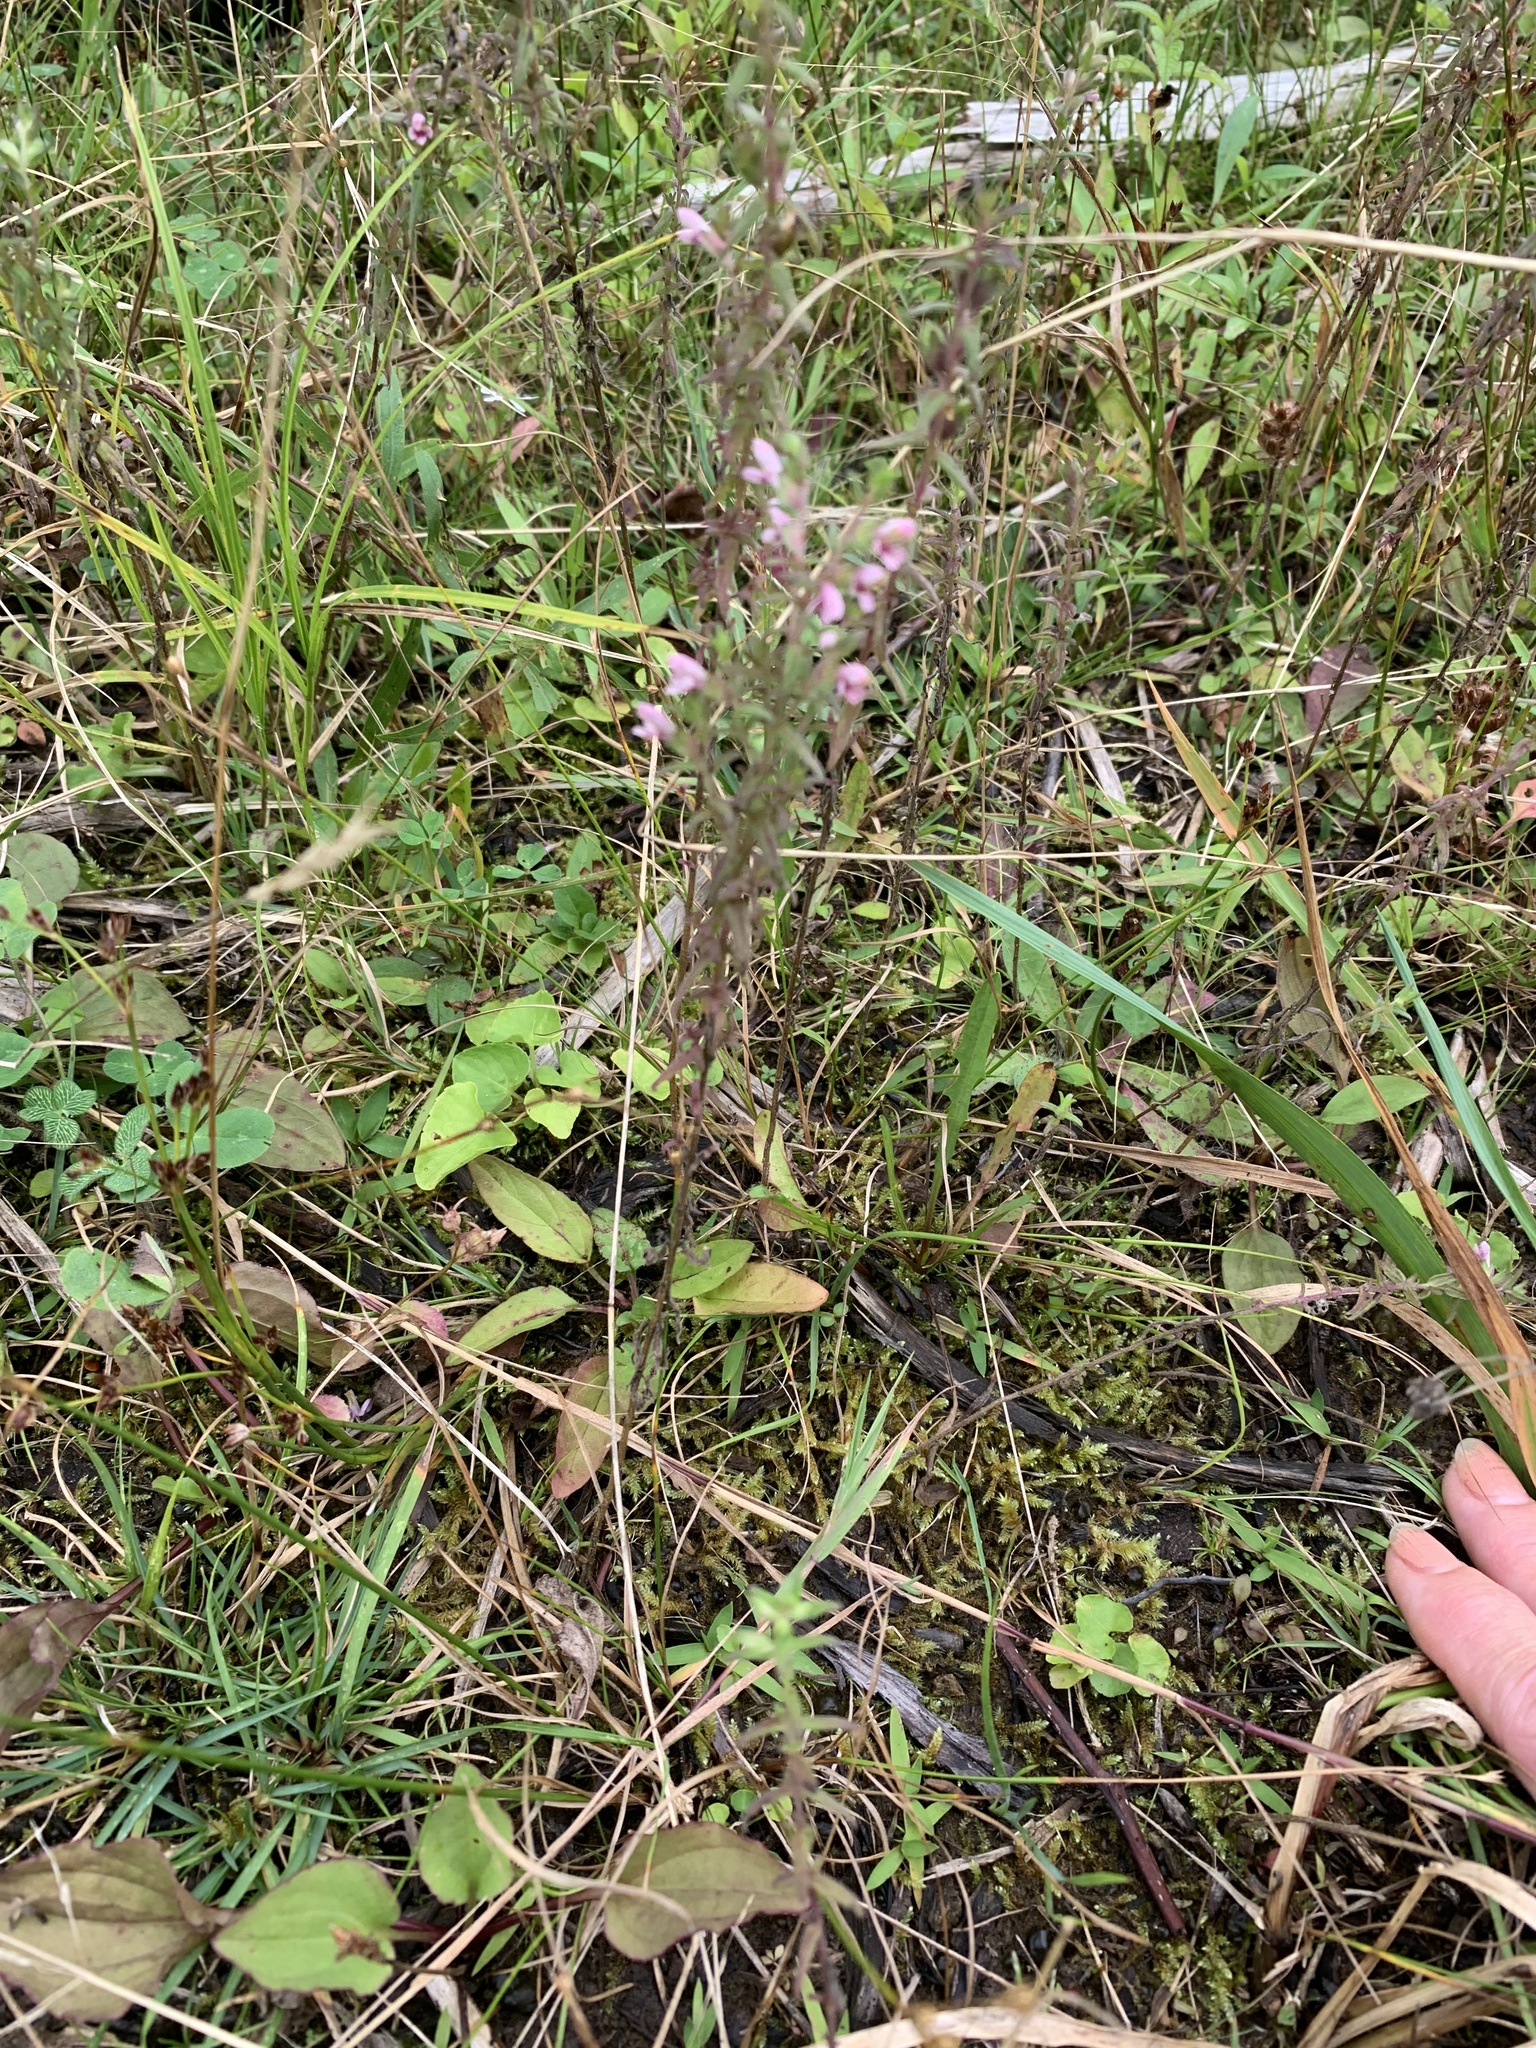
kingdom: Plantae
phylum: Tracheophyta
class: Magnoliopsida
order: Lamiales
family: Orobanchaceae
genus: Odontites
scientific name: Odontites vulgaris
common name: Broomrape
